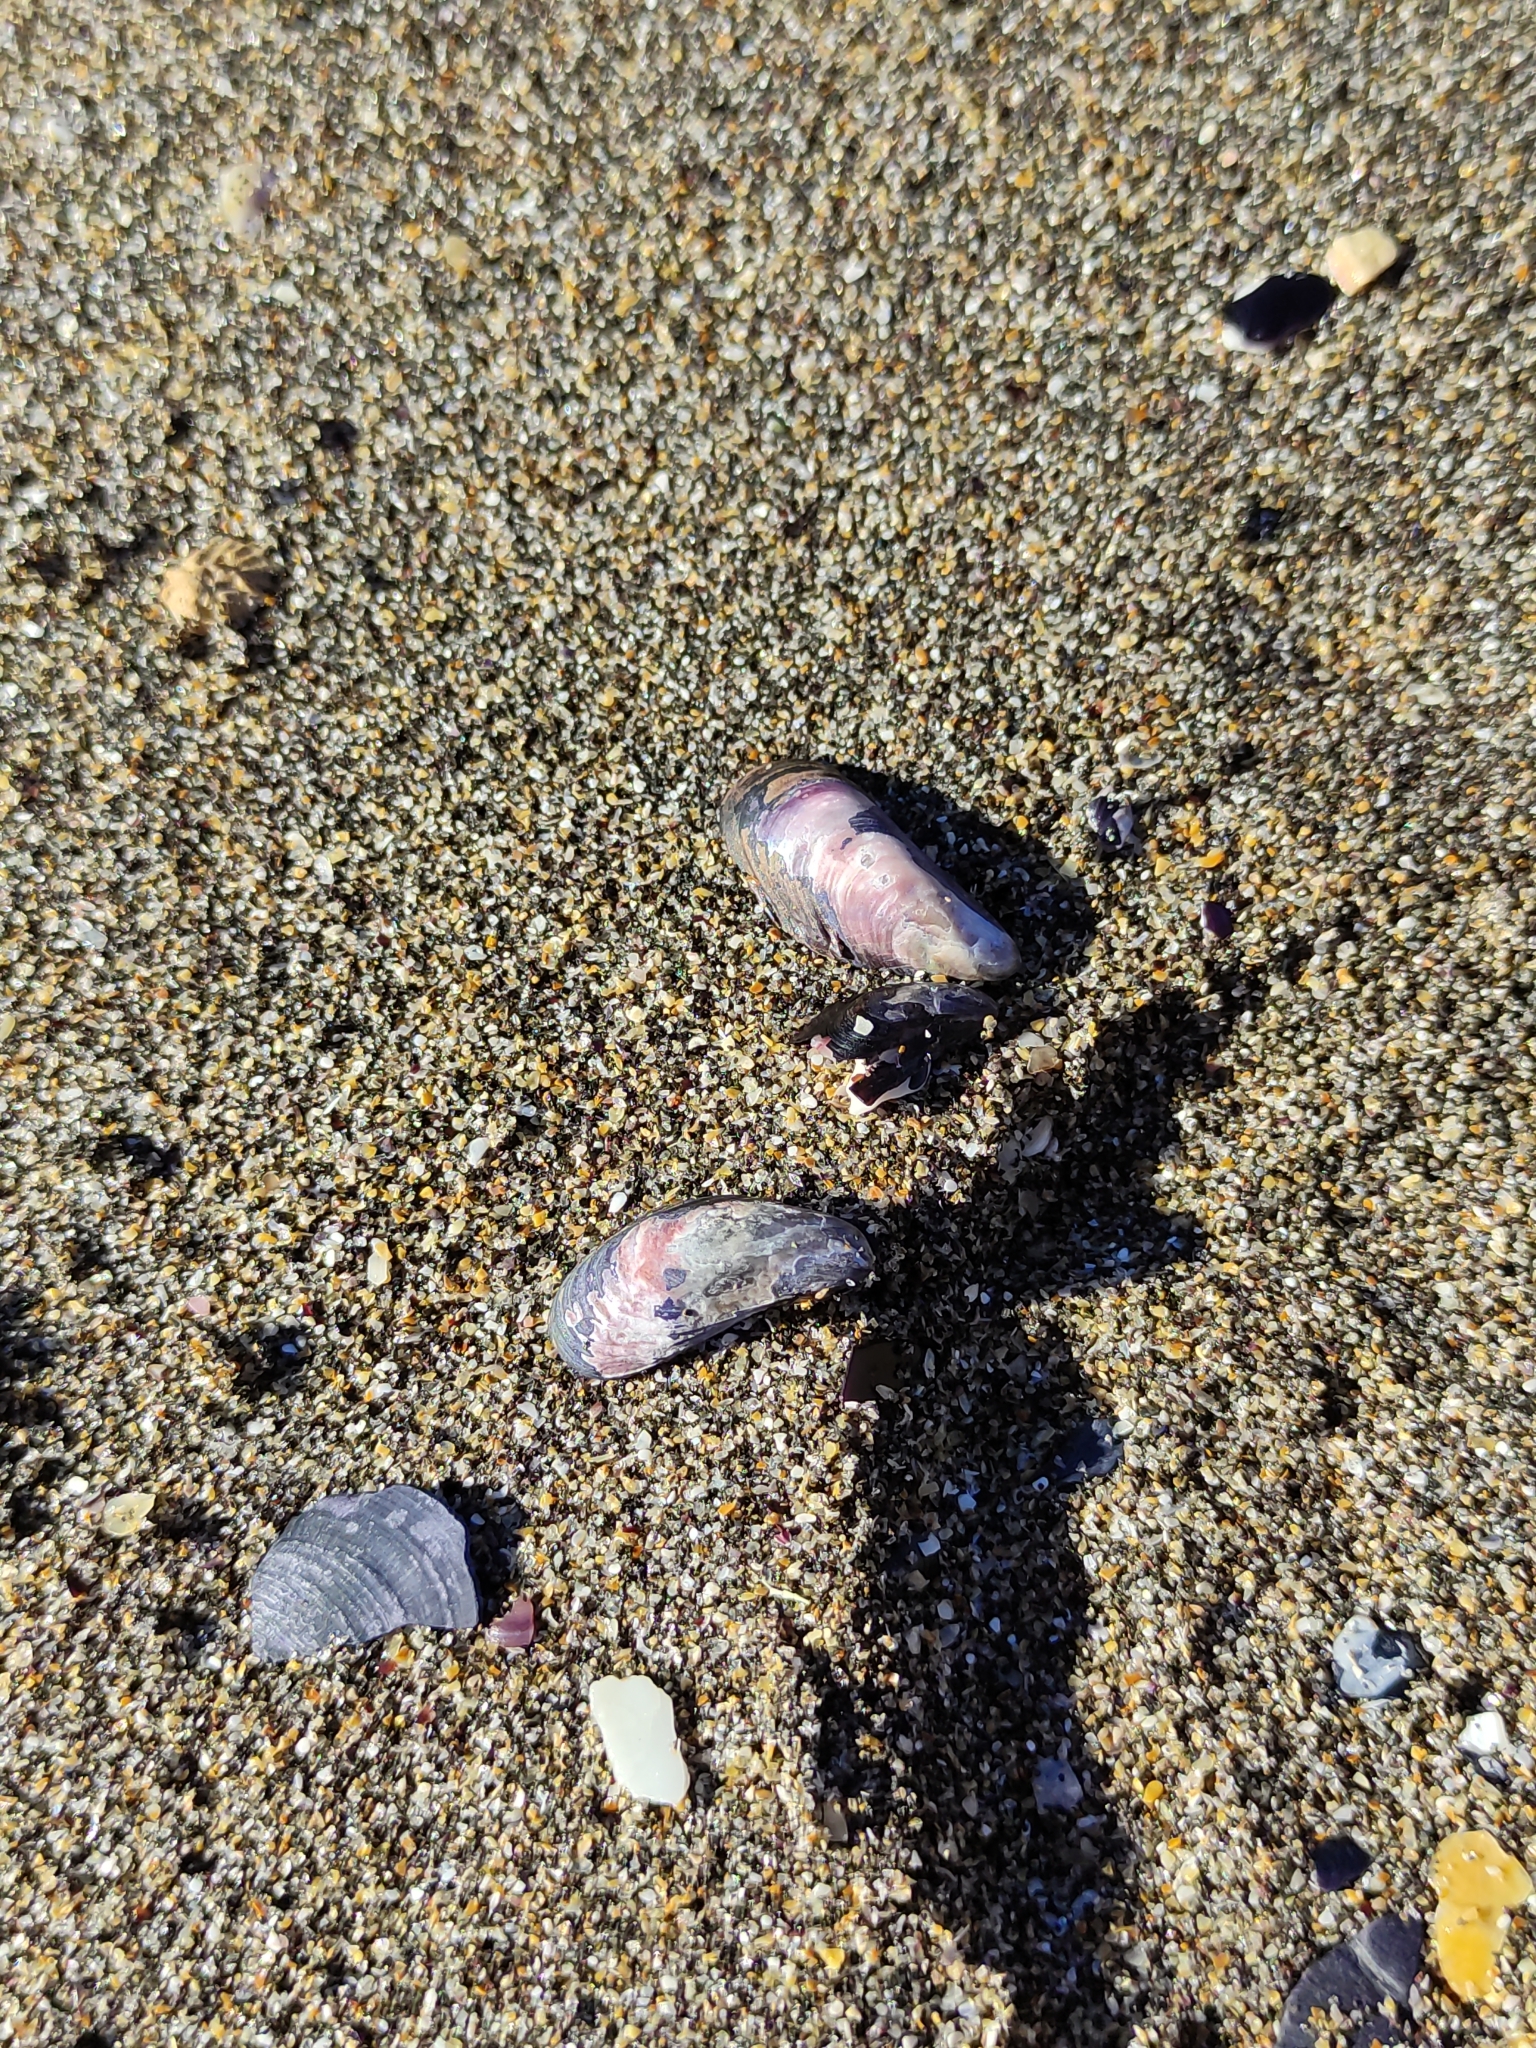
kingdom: Animalia
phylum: Mollusca
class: Bivalvia
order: Mytilida
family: Mytilidae
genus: Mytilus
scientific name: Mytilus planulatus
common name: Australian mussel
